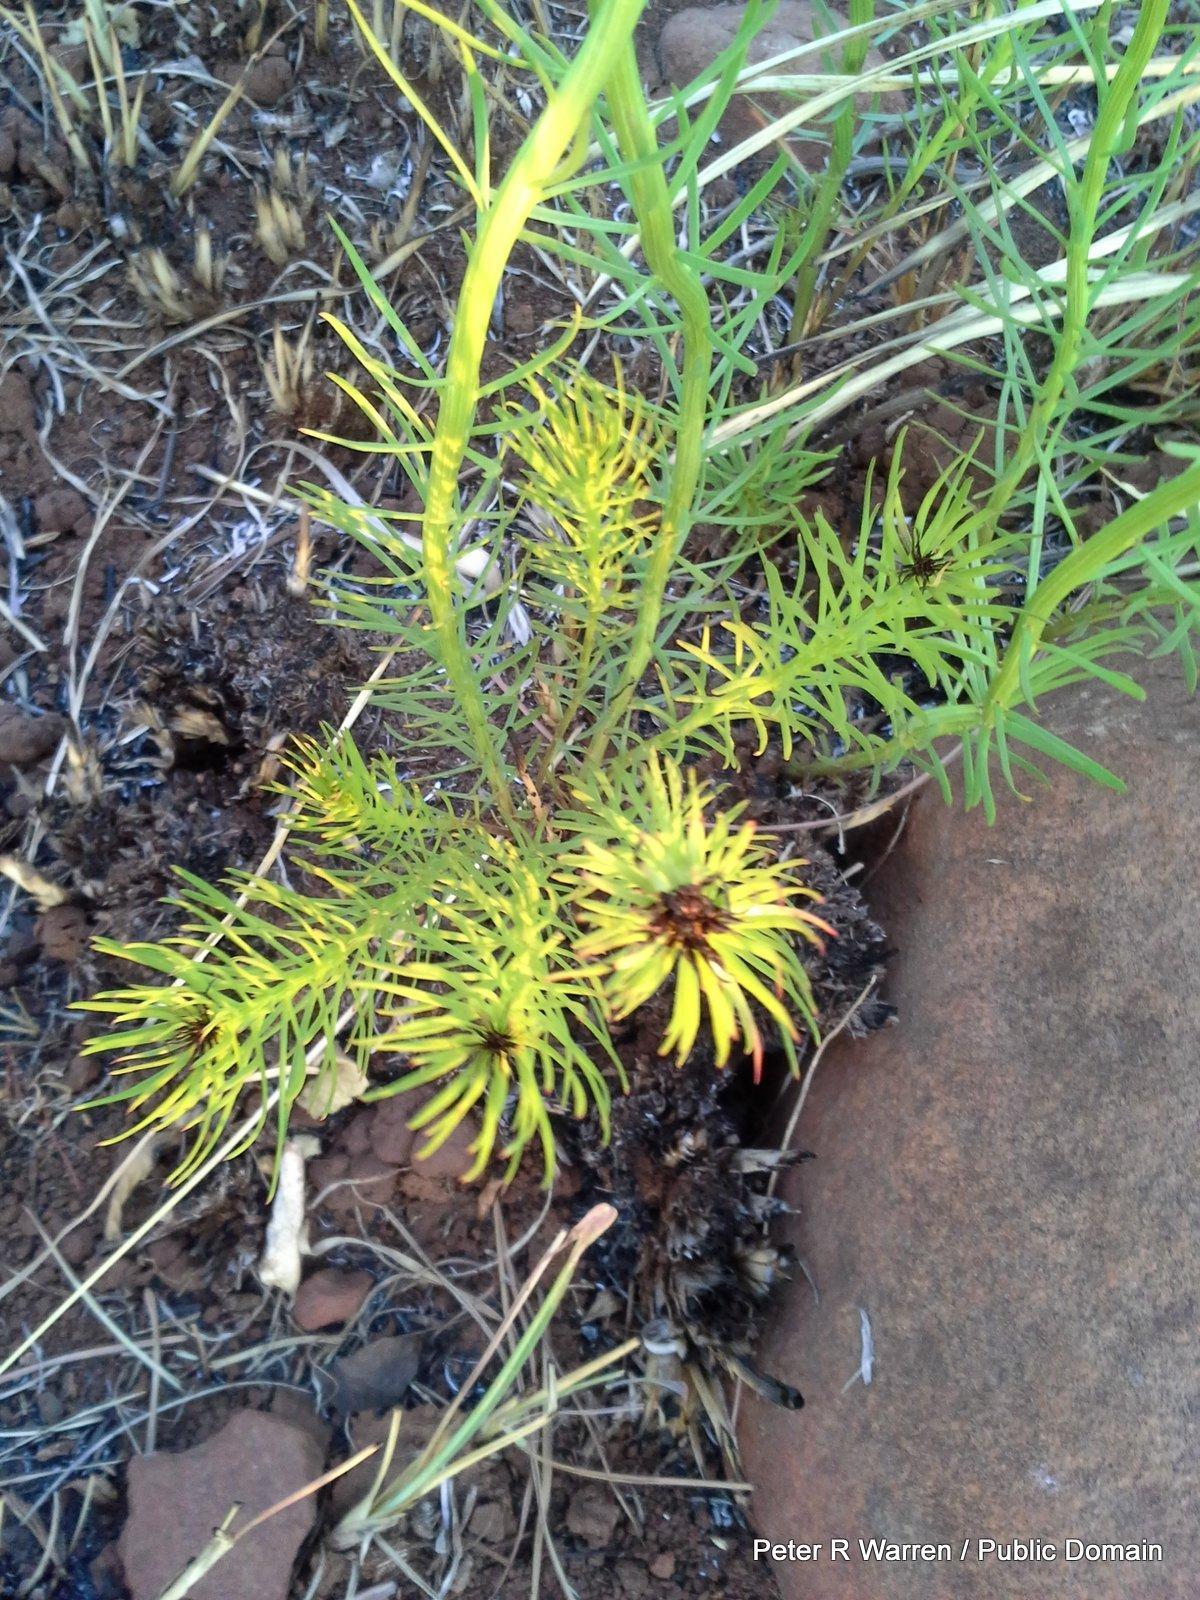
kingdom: Plantae
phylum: Tracheophyta
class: Magnoliopsida
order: Asterales
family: Asteraceae
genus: Callilepis
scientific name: Callilepis leptophylla
